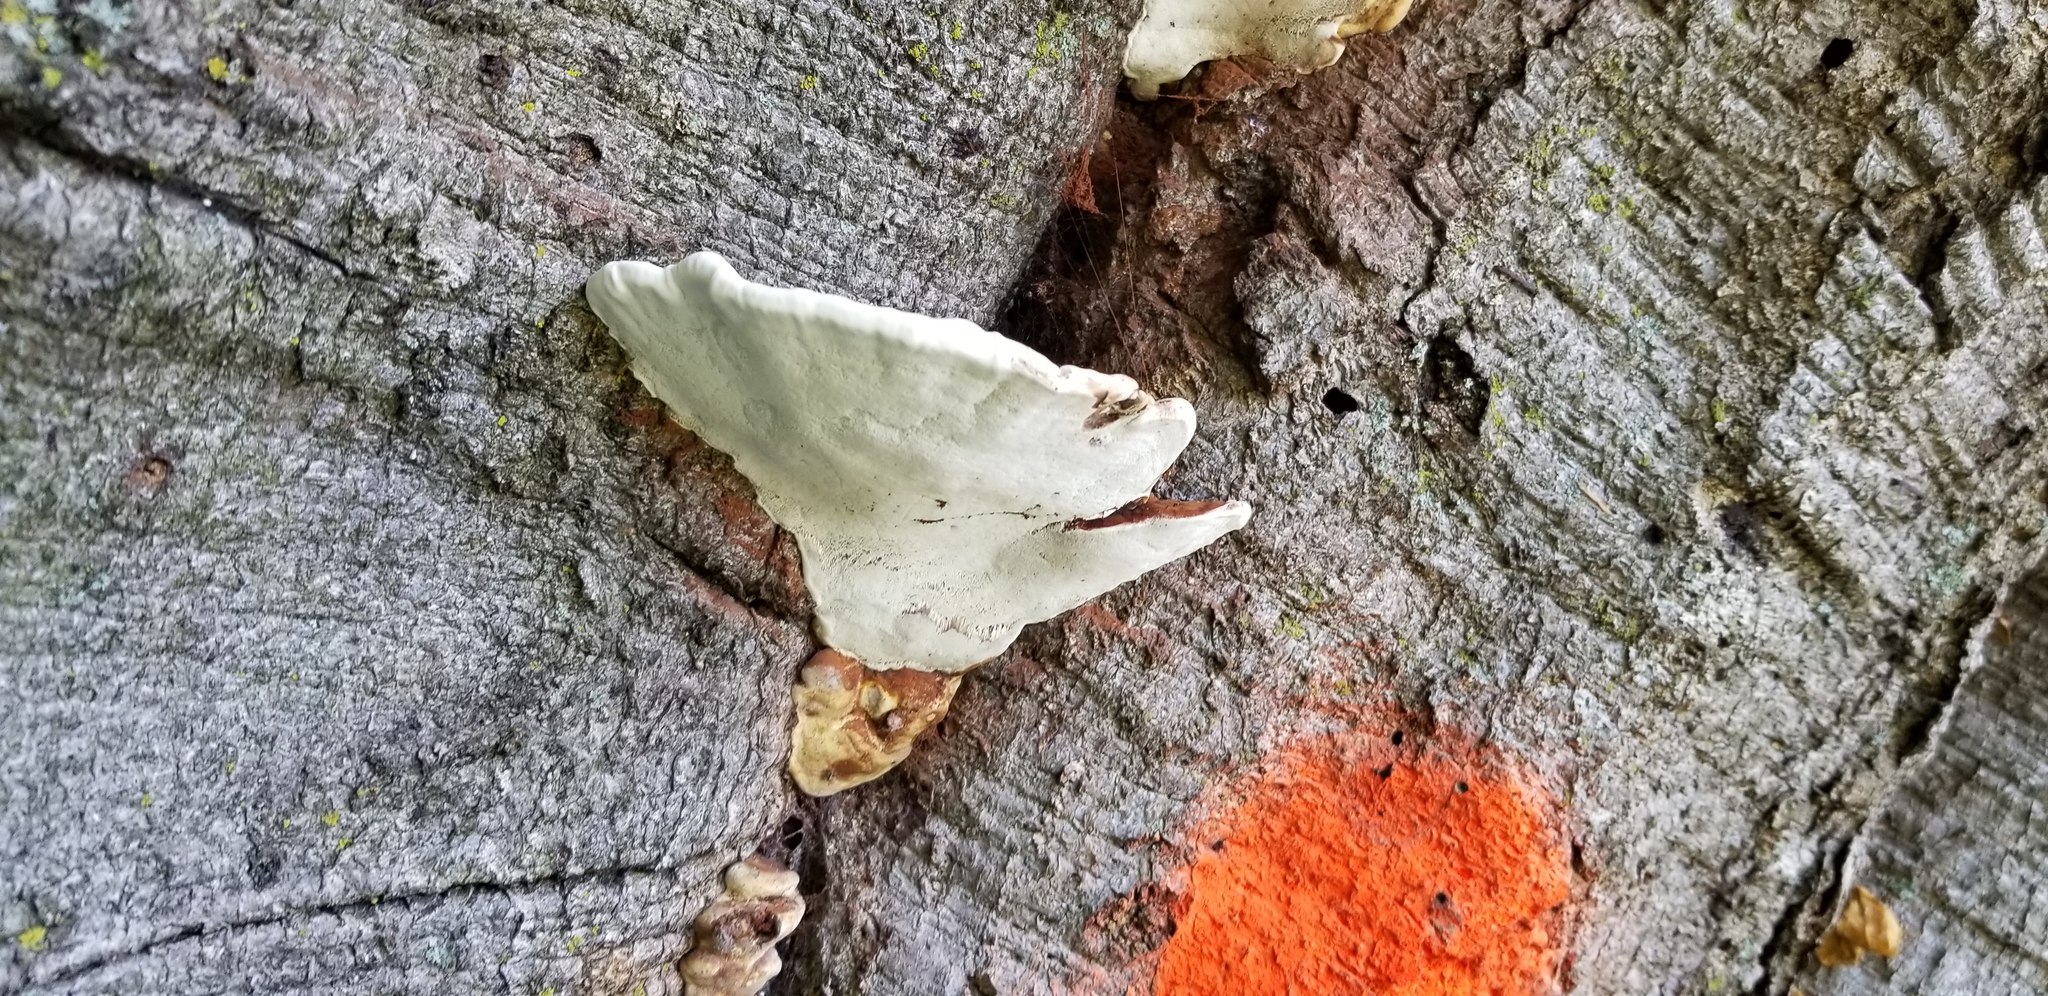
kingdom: Fungi
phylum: Basidiomycota
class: Agaricomycetes
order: Polyporales
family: Polyporaceae
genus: Ganoderma
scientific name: Ganoderma applanatum
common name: Artist's bracket
